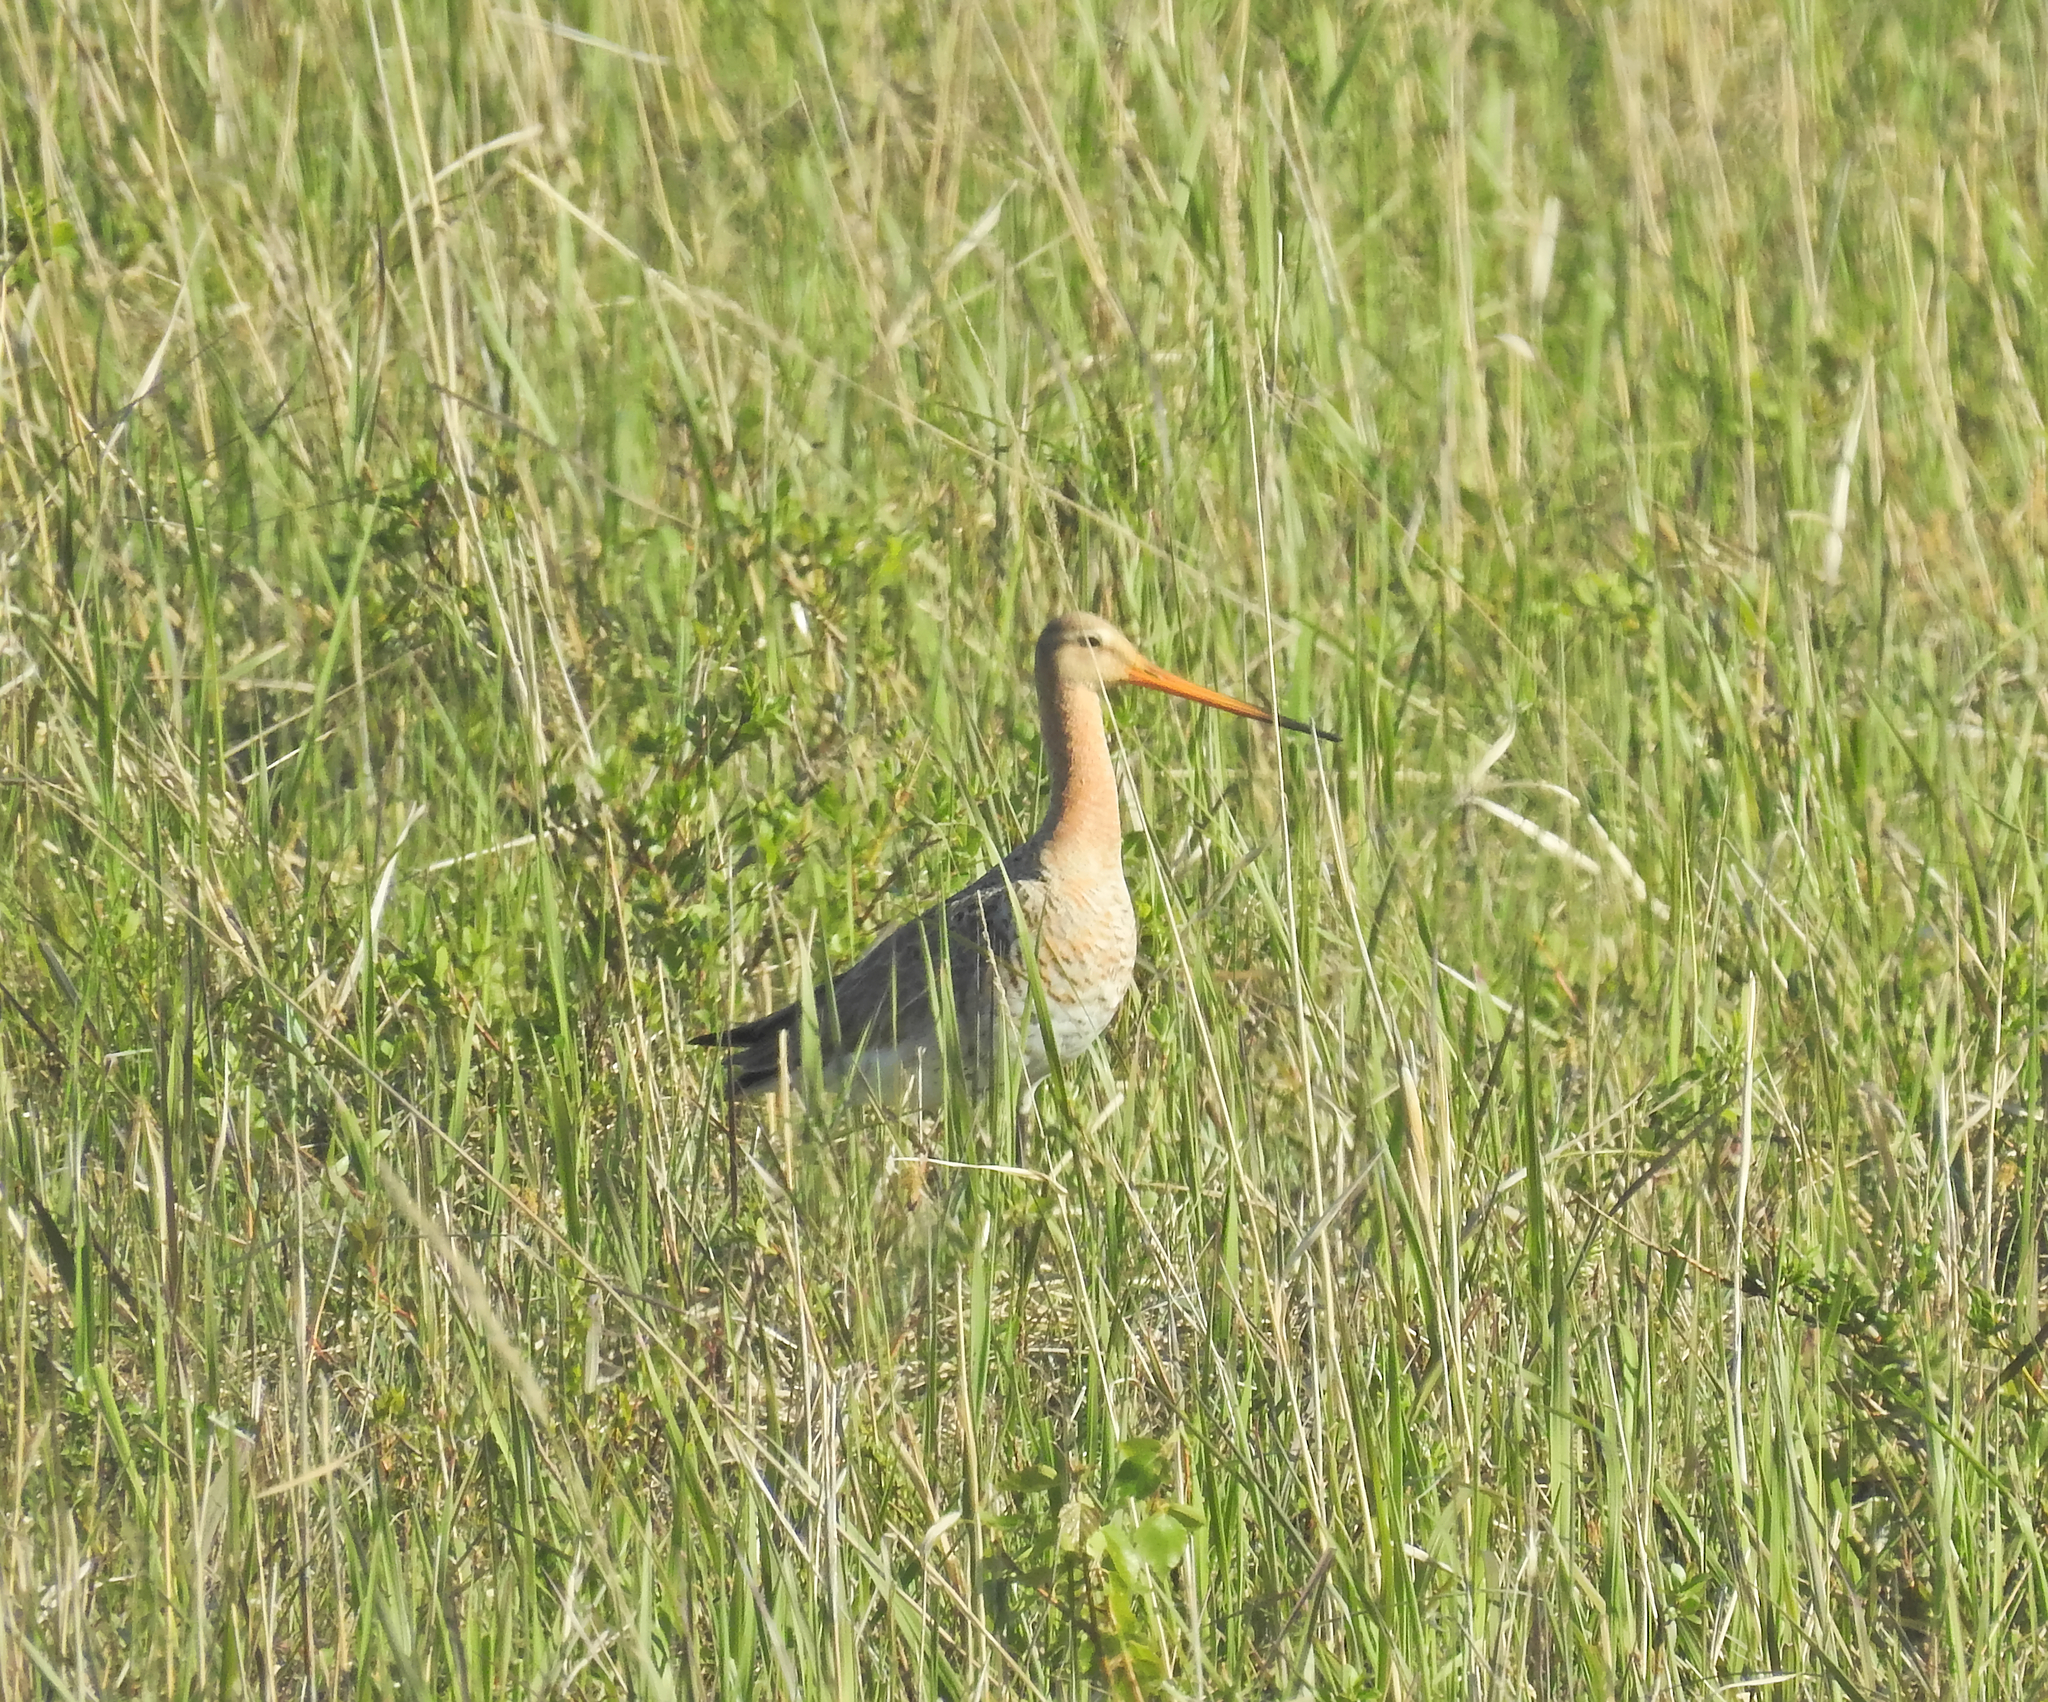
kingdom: Animalia
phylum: Chordata
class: Aves
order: Charadriiformes
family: Scolopacidae
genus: Limosa
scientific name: Limosa limosa
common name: Black-tailed godwit
